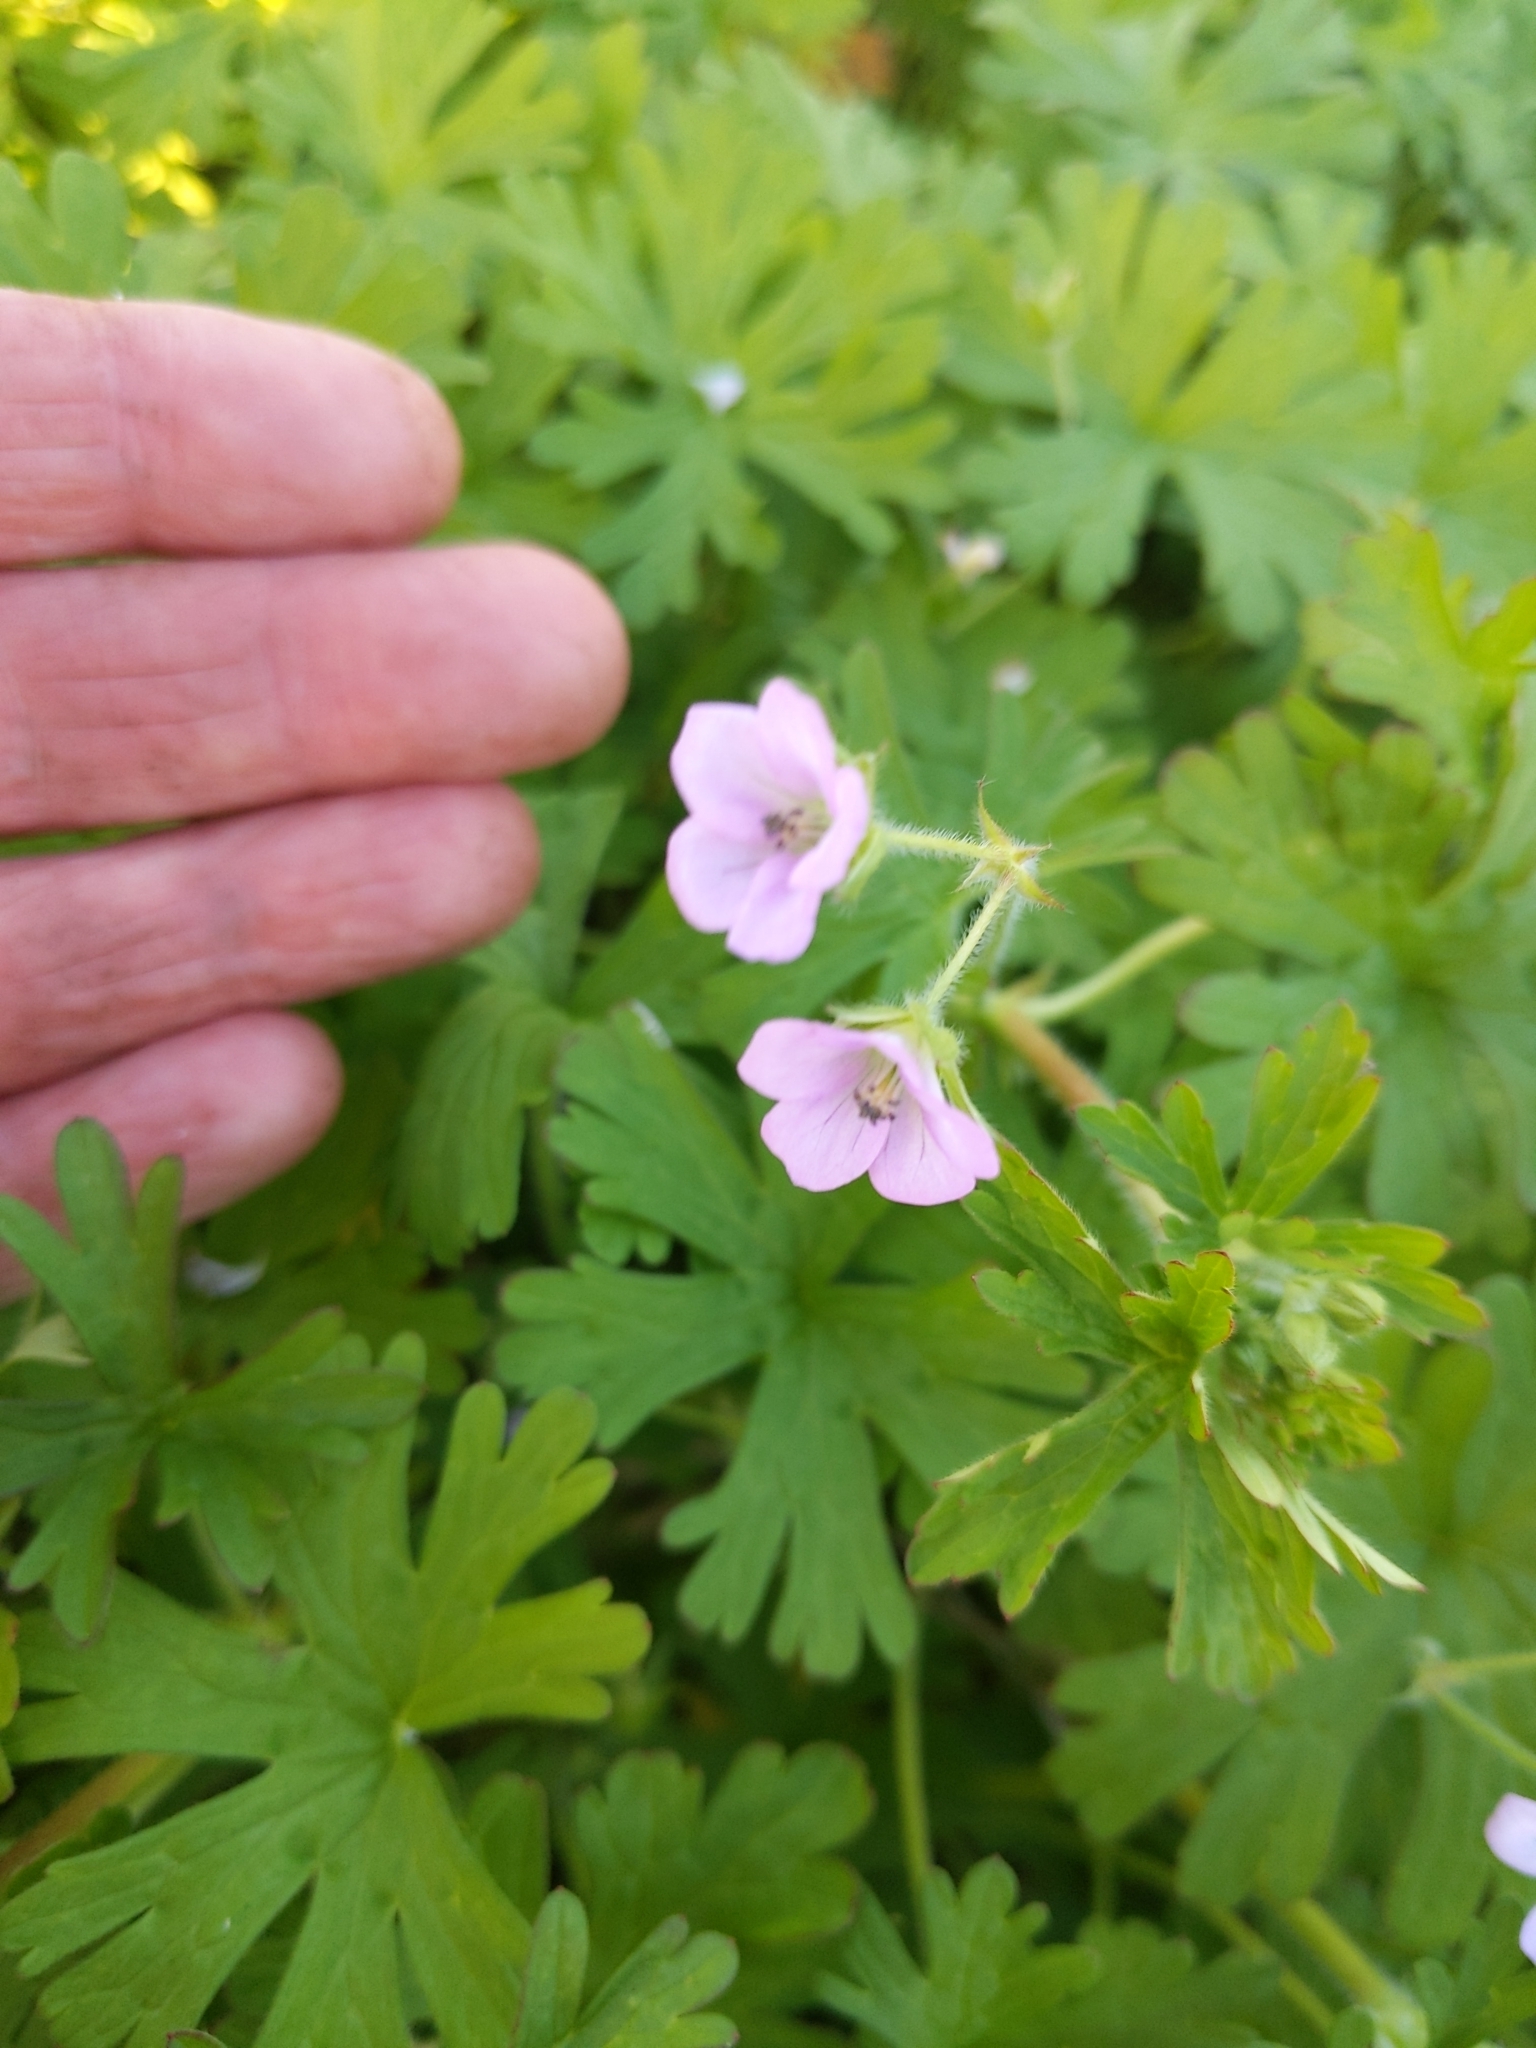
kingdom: Plantae
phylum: Tracheophyta
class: Magnoliopsida
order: Geraniales
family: Geraniaceae
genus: Geranium
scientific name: Geranium solanderi
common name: Solander's geranium
